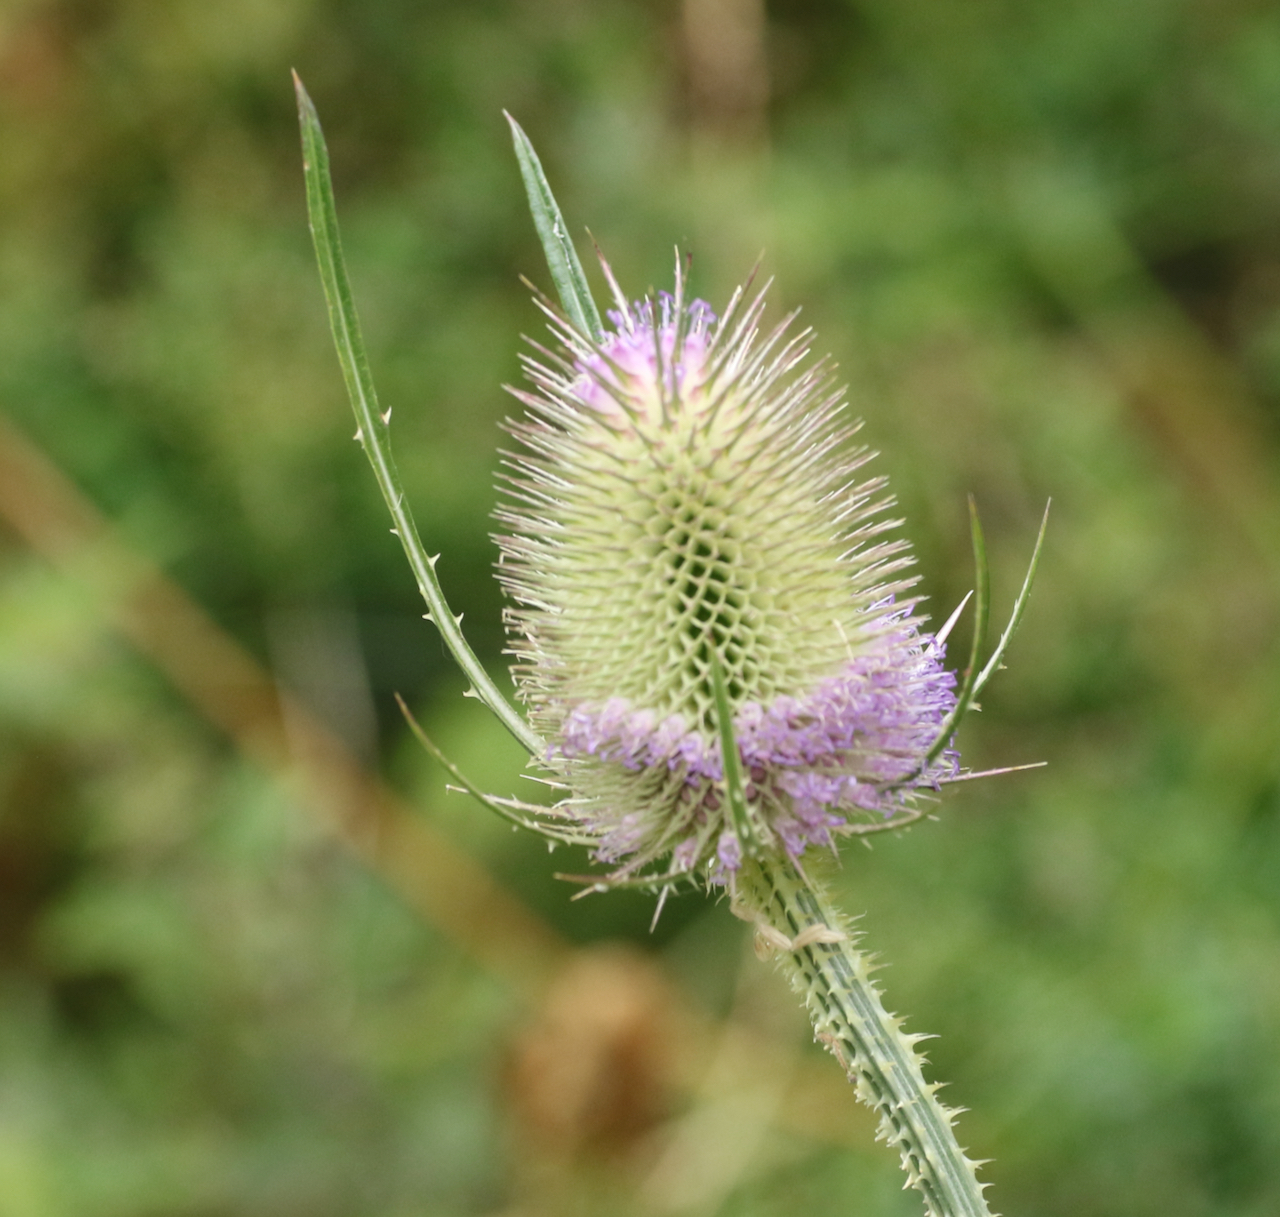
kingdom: Plantae
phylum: Tracheophyta
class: Magnoliopsida
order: Dipsacales
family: Caprifoliaceae
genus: Dipsacus
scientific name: Dipsacus fullonum
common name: Teasel
